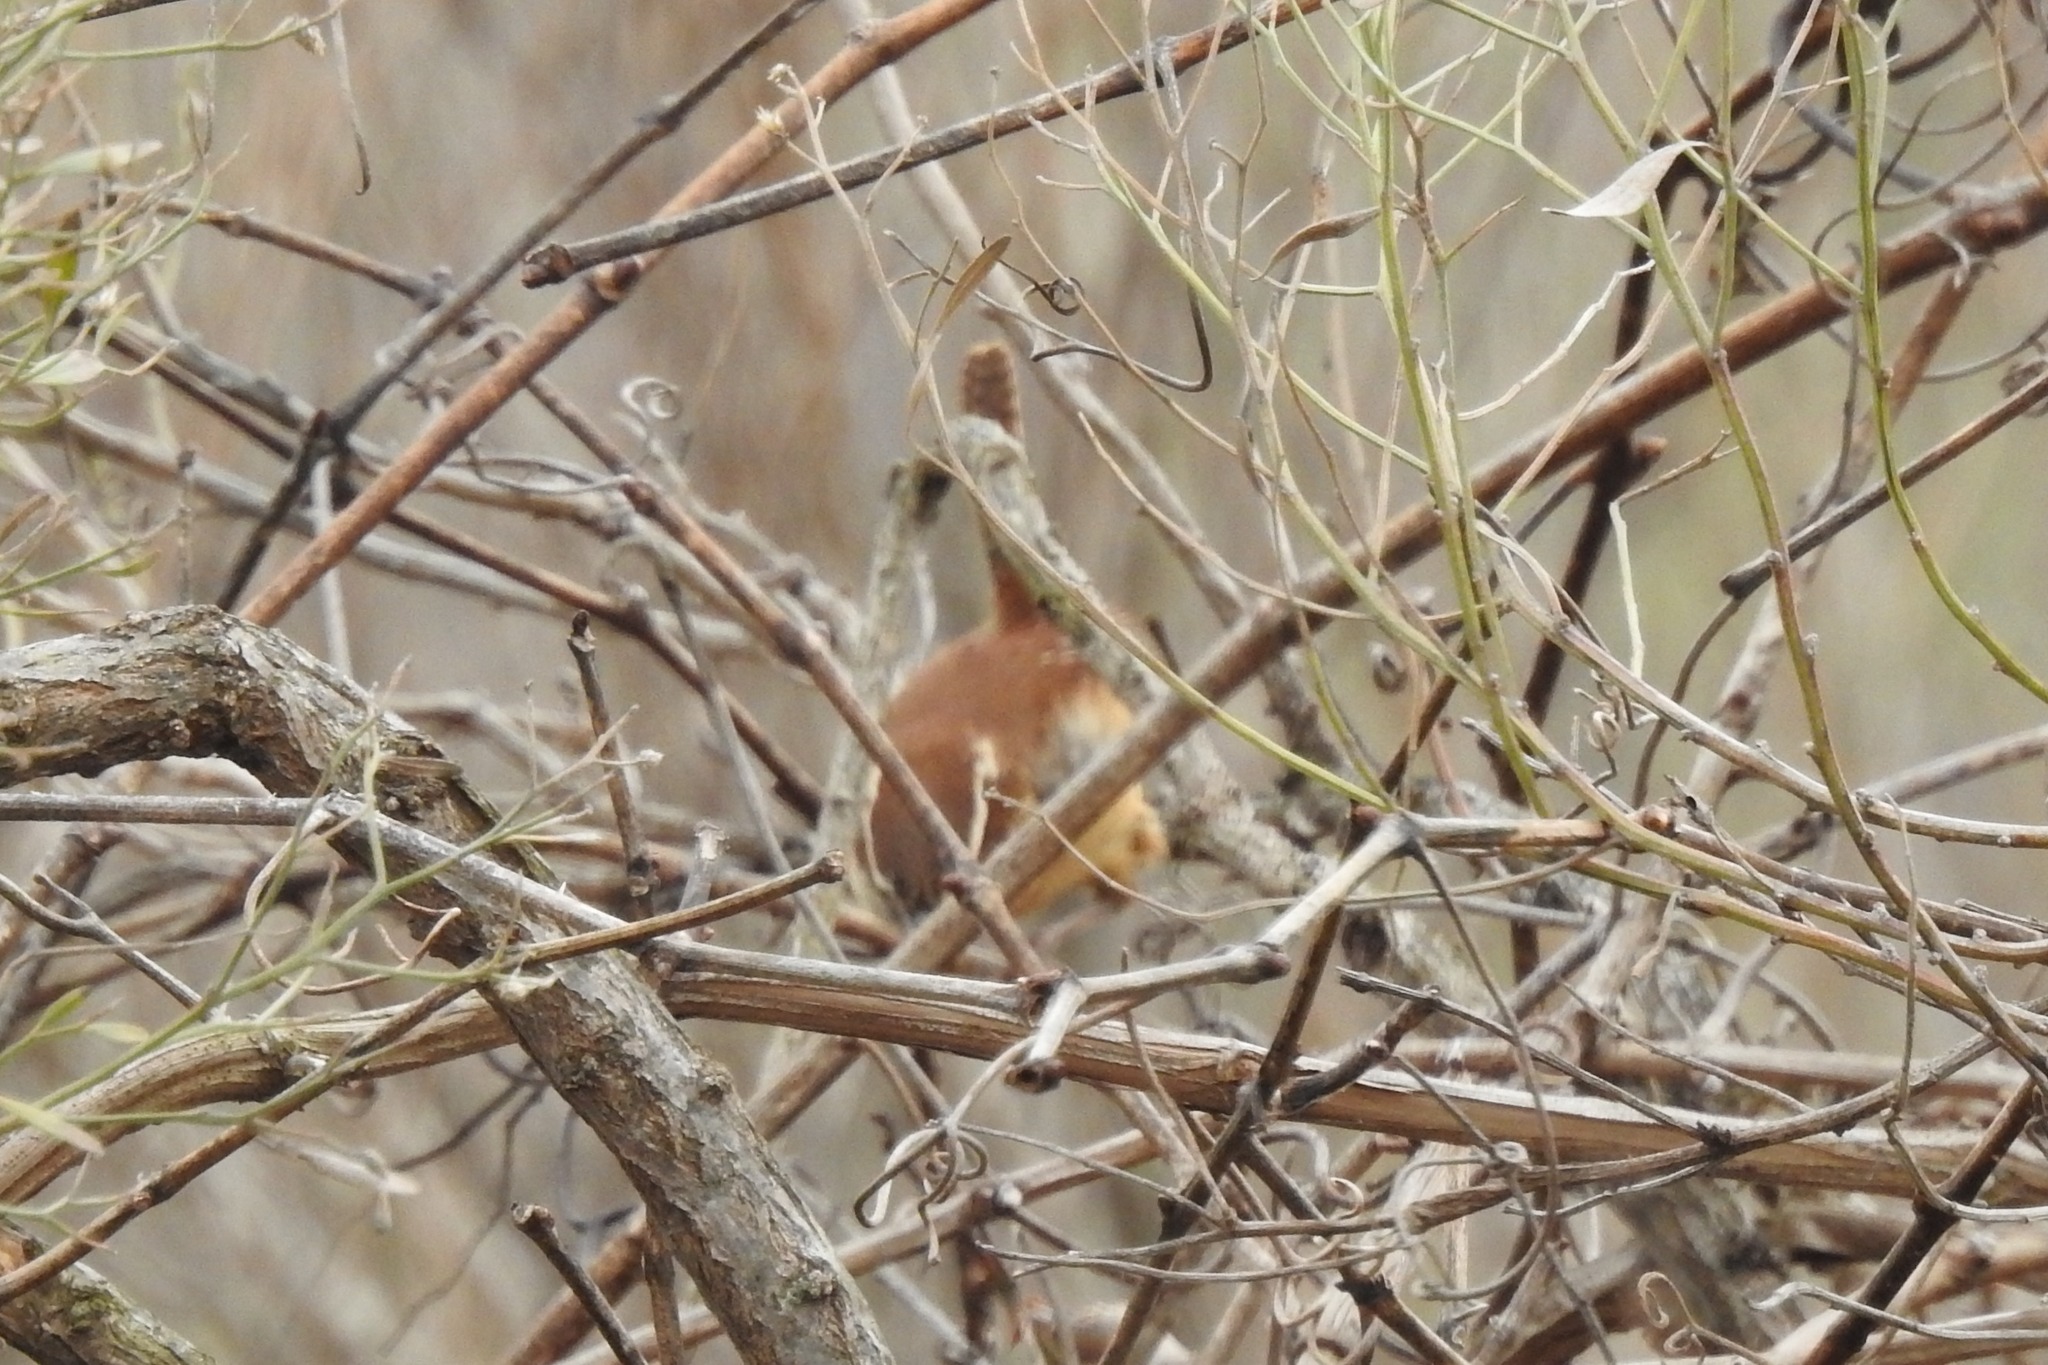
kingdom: Animalia
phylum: Chordata
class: Aves
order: Passeriformes
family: Troglodytidae
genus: Thryothorus
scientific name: Thryothorus ludovicianus
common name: Carolina wren
